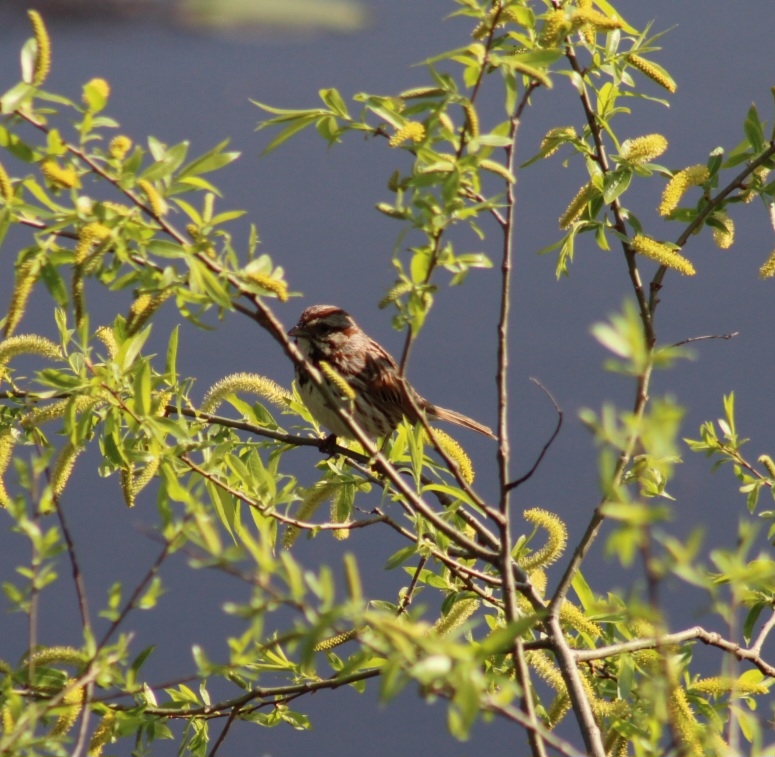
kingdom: Animalia
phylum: Chordata
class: Aves
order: Passeriformes
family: Passerellidae
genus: Melospiza
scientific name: Melospiza melodia
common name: Song sparrow
